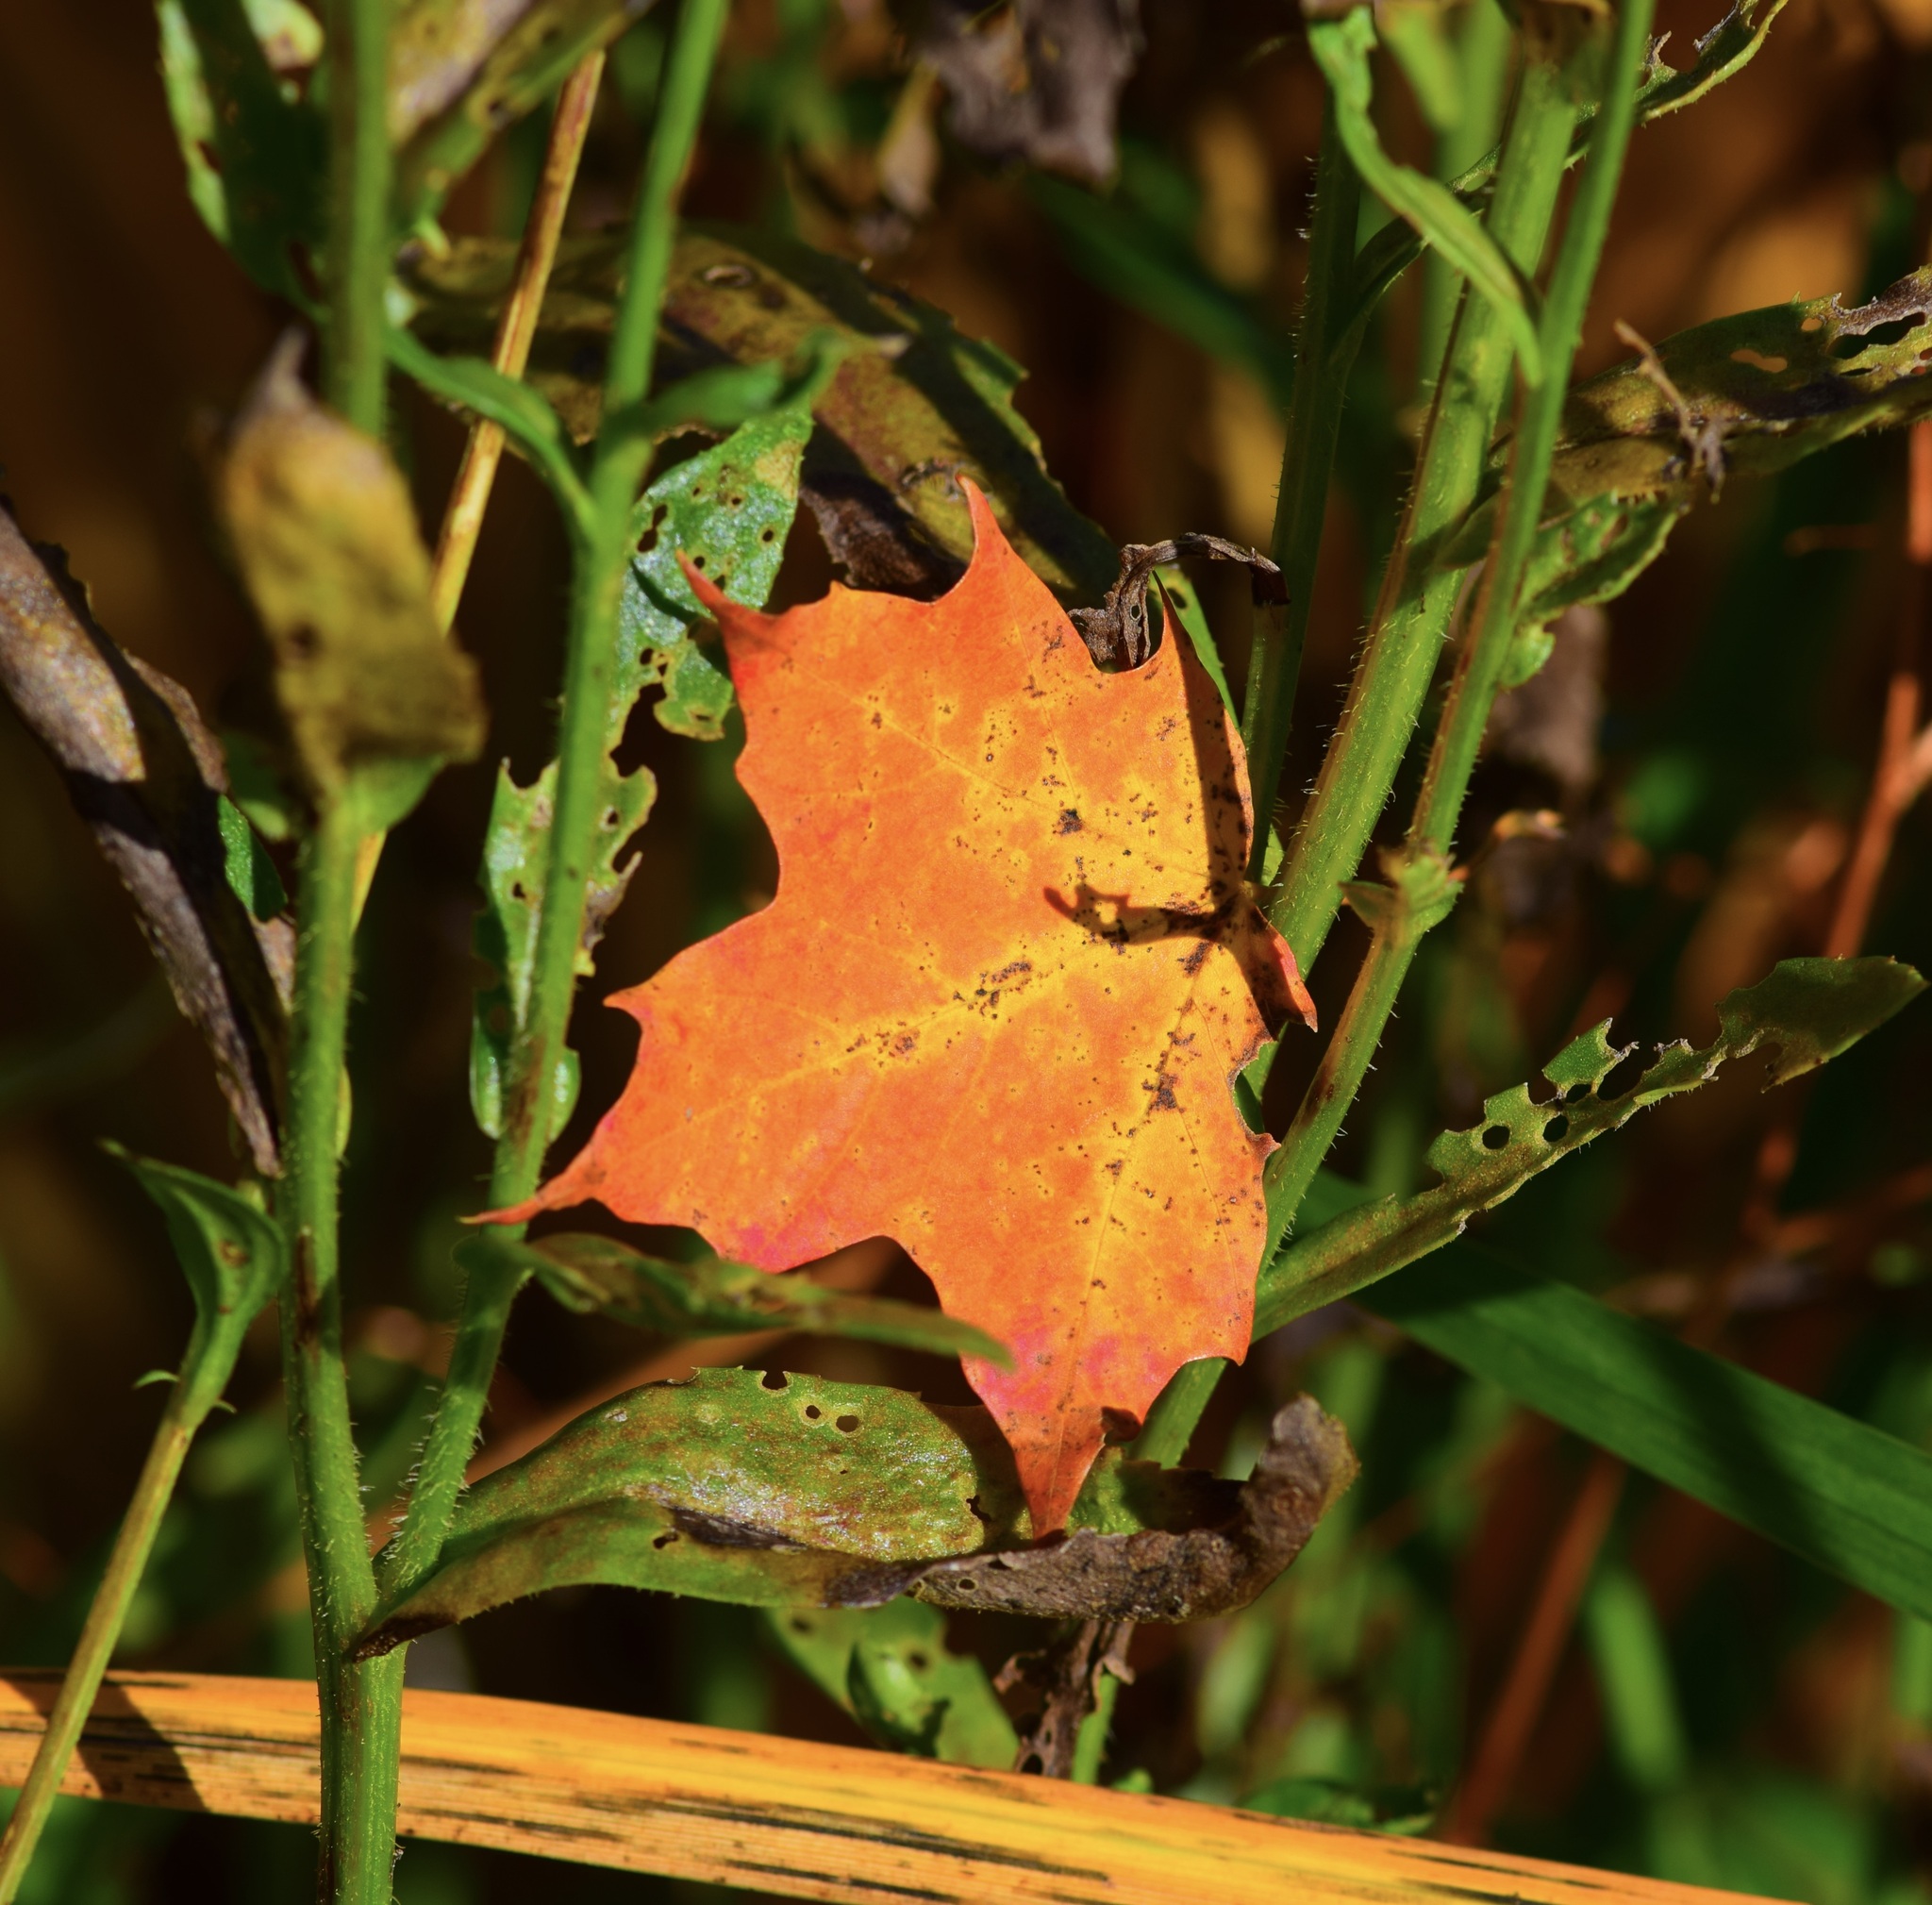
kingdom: Plantae
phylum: Tracheophyta
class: Magnoliopsida
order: Sapindales
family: Sapindaceae
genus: Acer
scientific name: Acer saccharum
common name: Sugar maple
